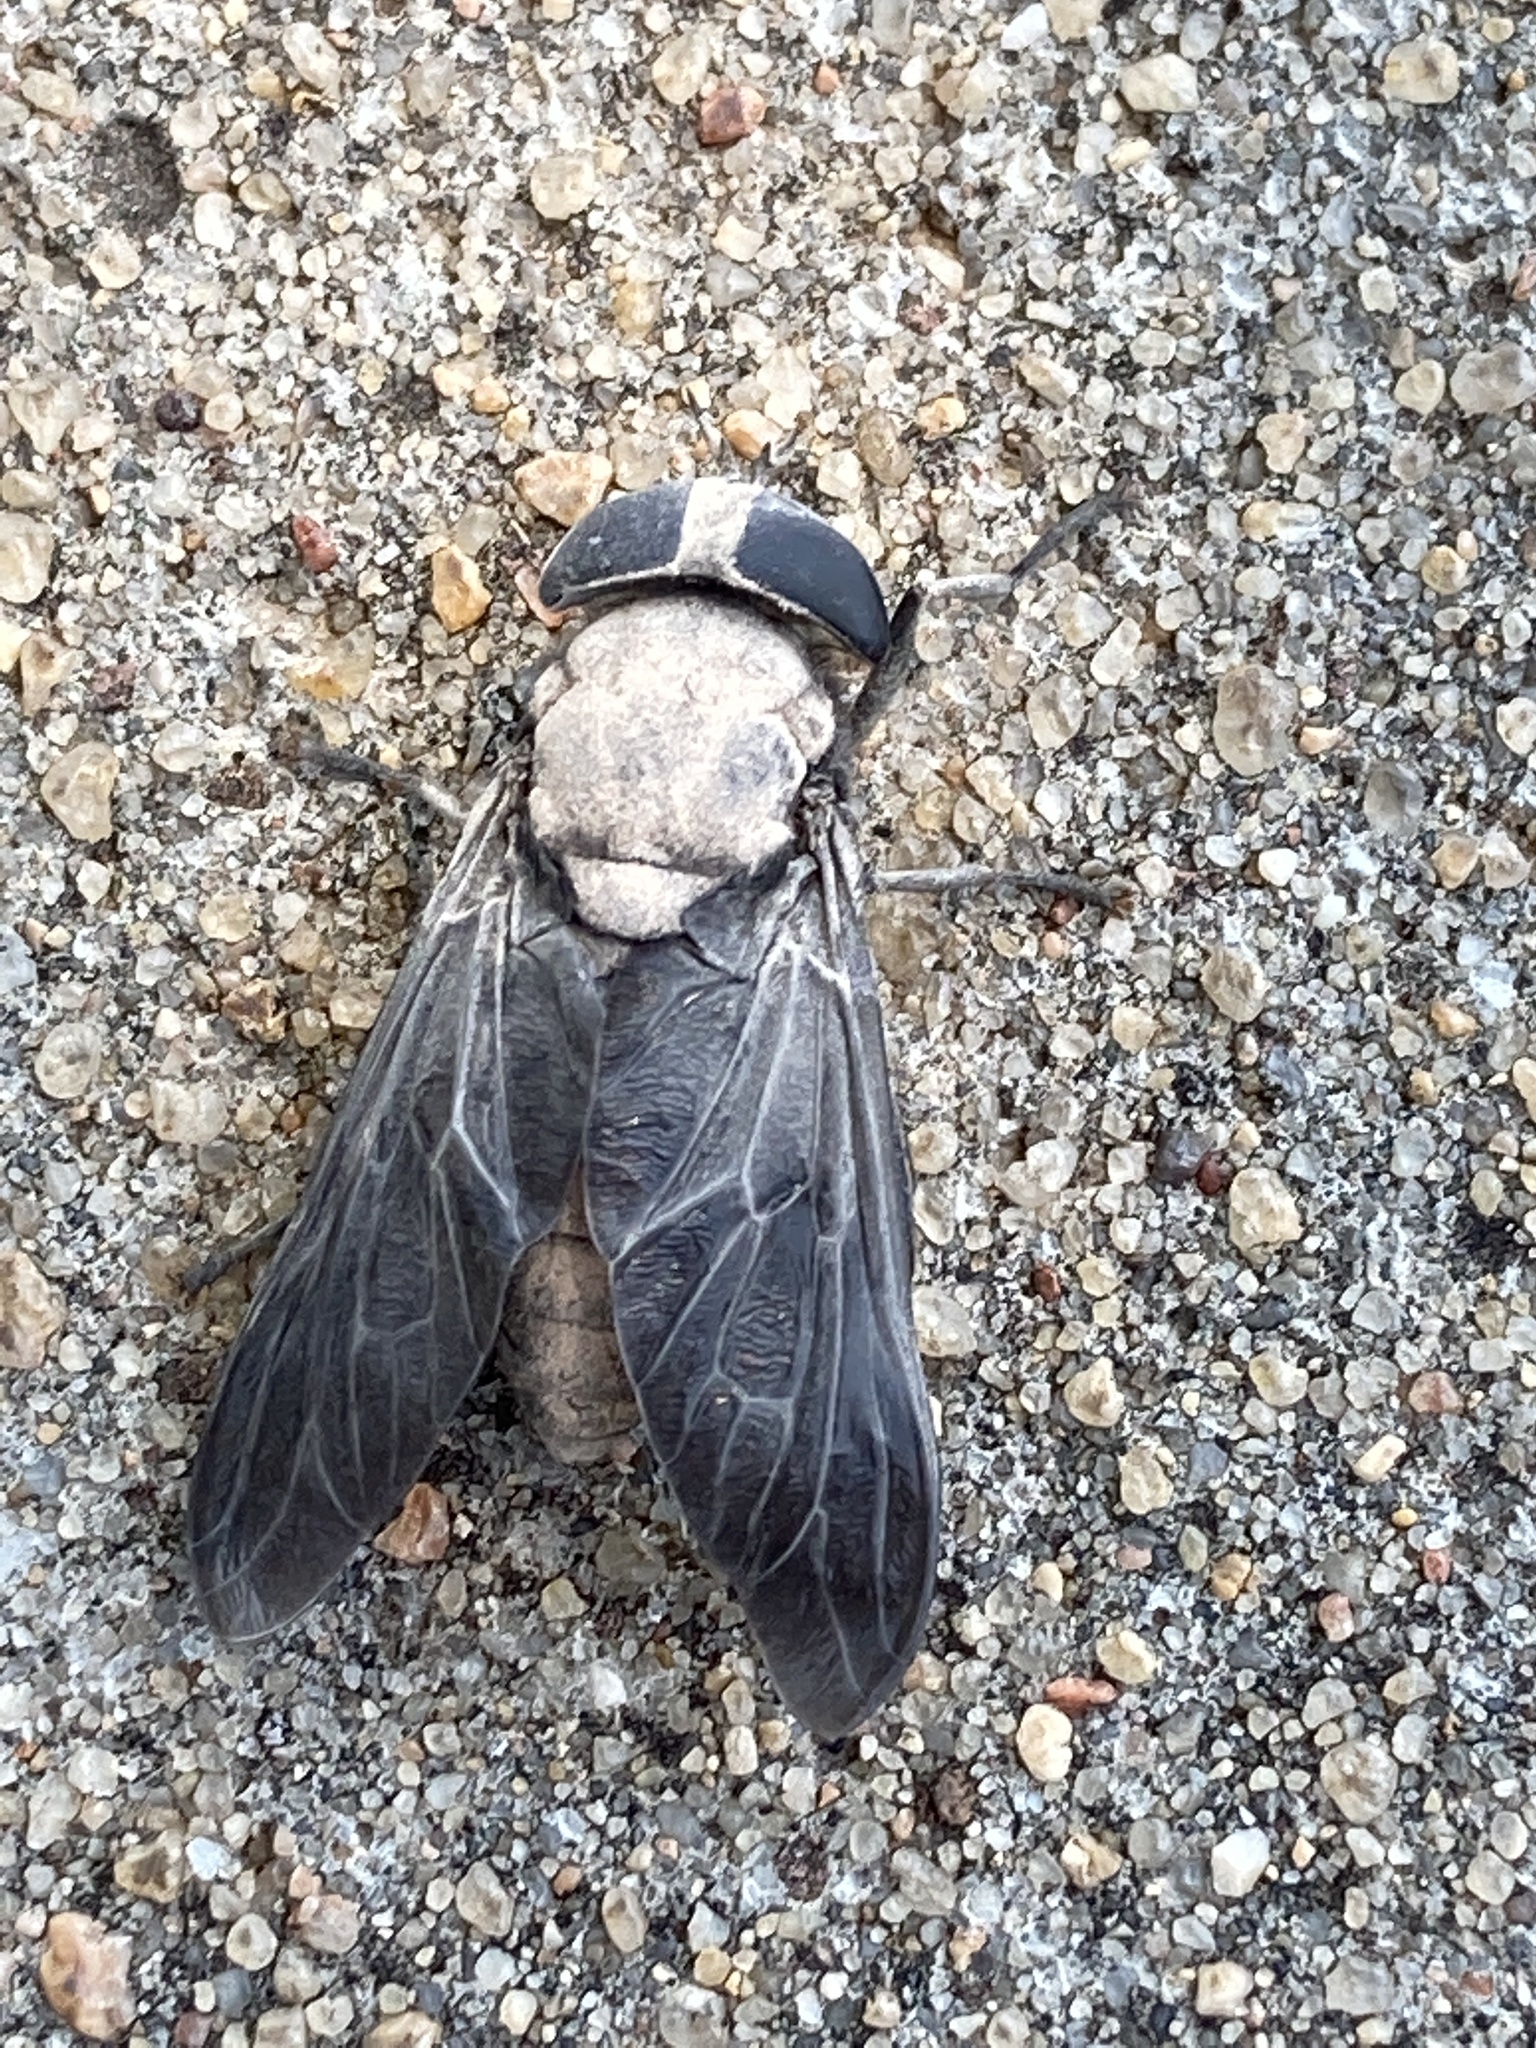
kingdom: Animalia
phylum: Arthropoda
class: Insecta
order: Diptera
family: Tabanidae
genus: Tabanus
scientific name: Tabanus stygius
